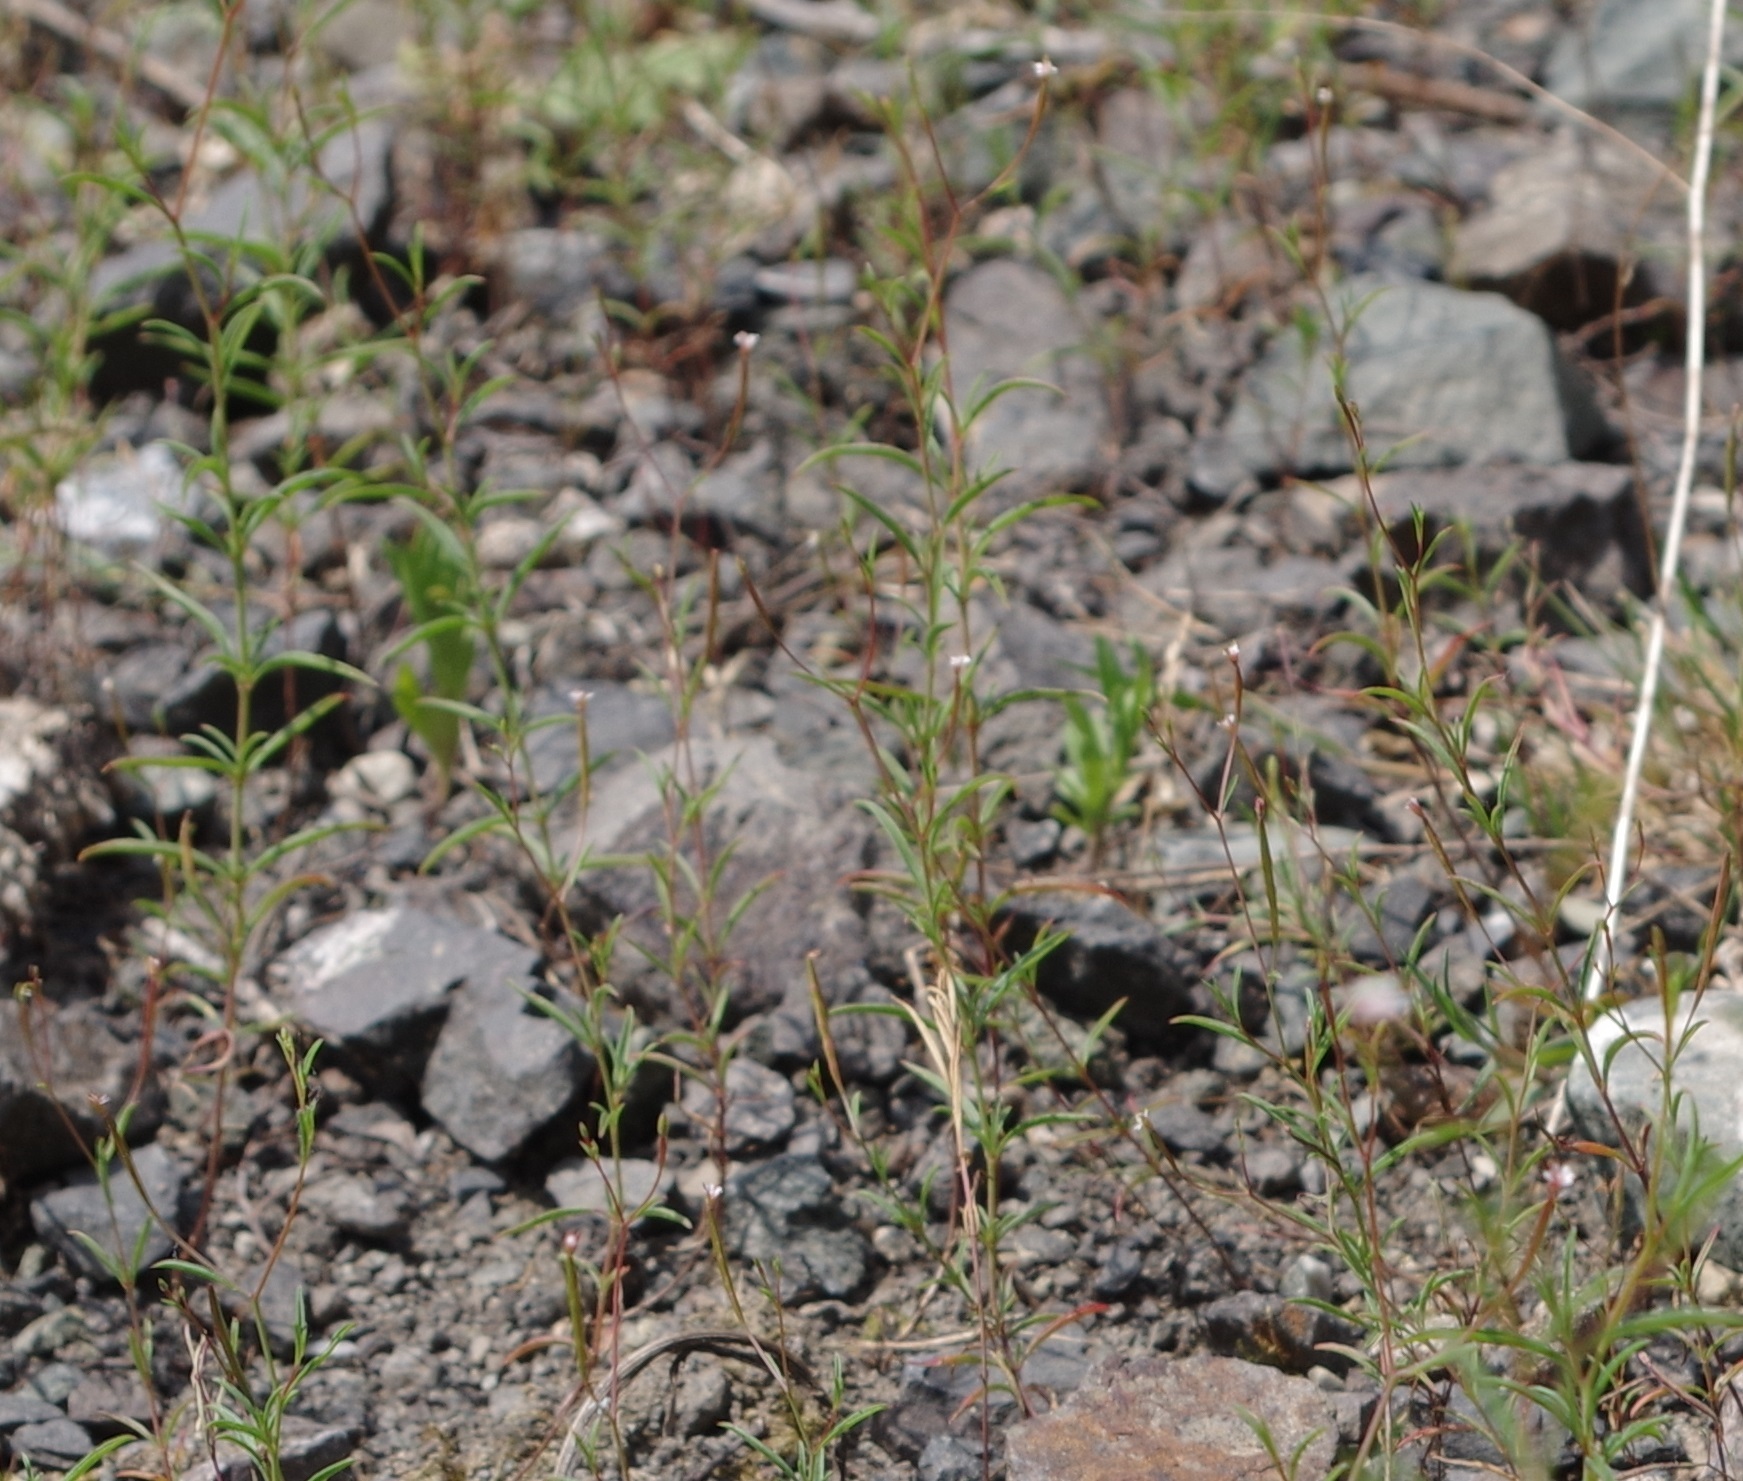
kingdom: Plantae
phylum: Tracheophyta
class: Magnoliopsida
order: Myrtales
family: Onagraceae
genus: Epilobium
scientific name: Epilobium brachycarpum
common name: Annual willowherb
